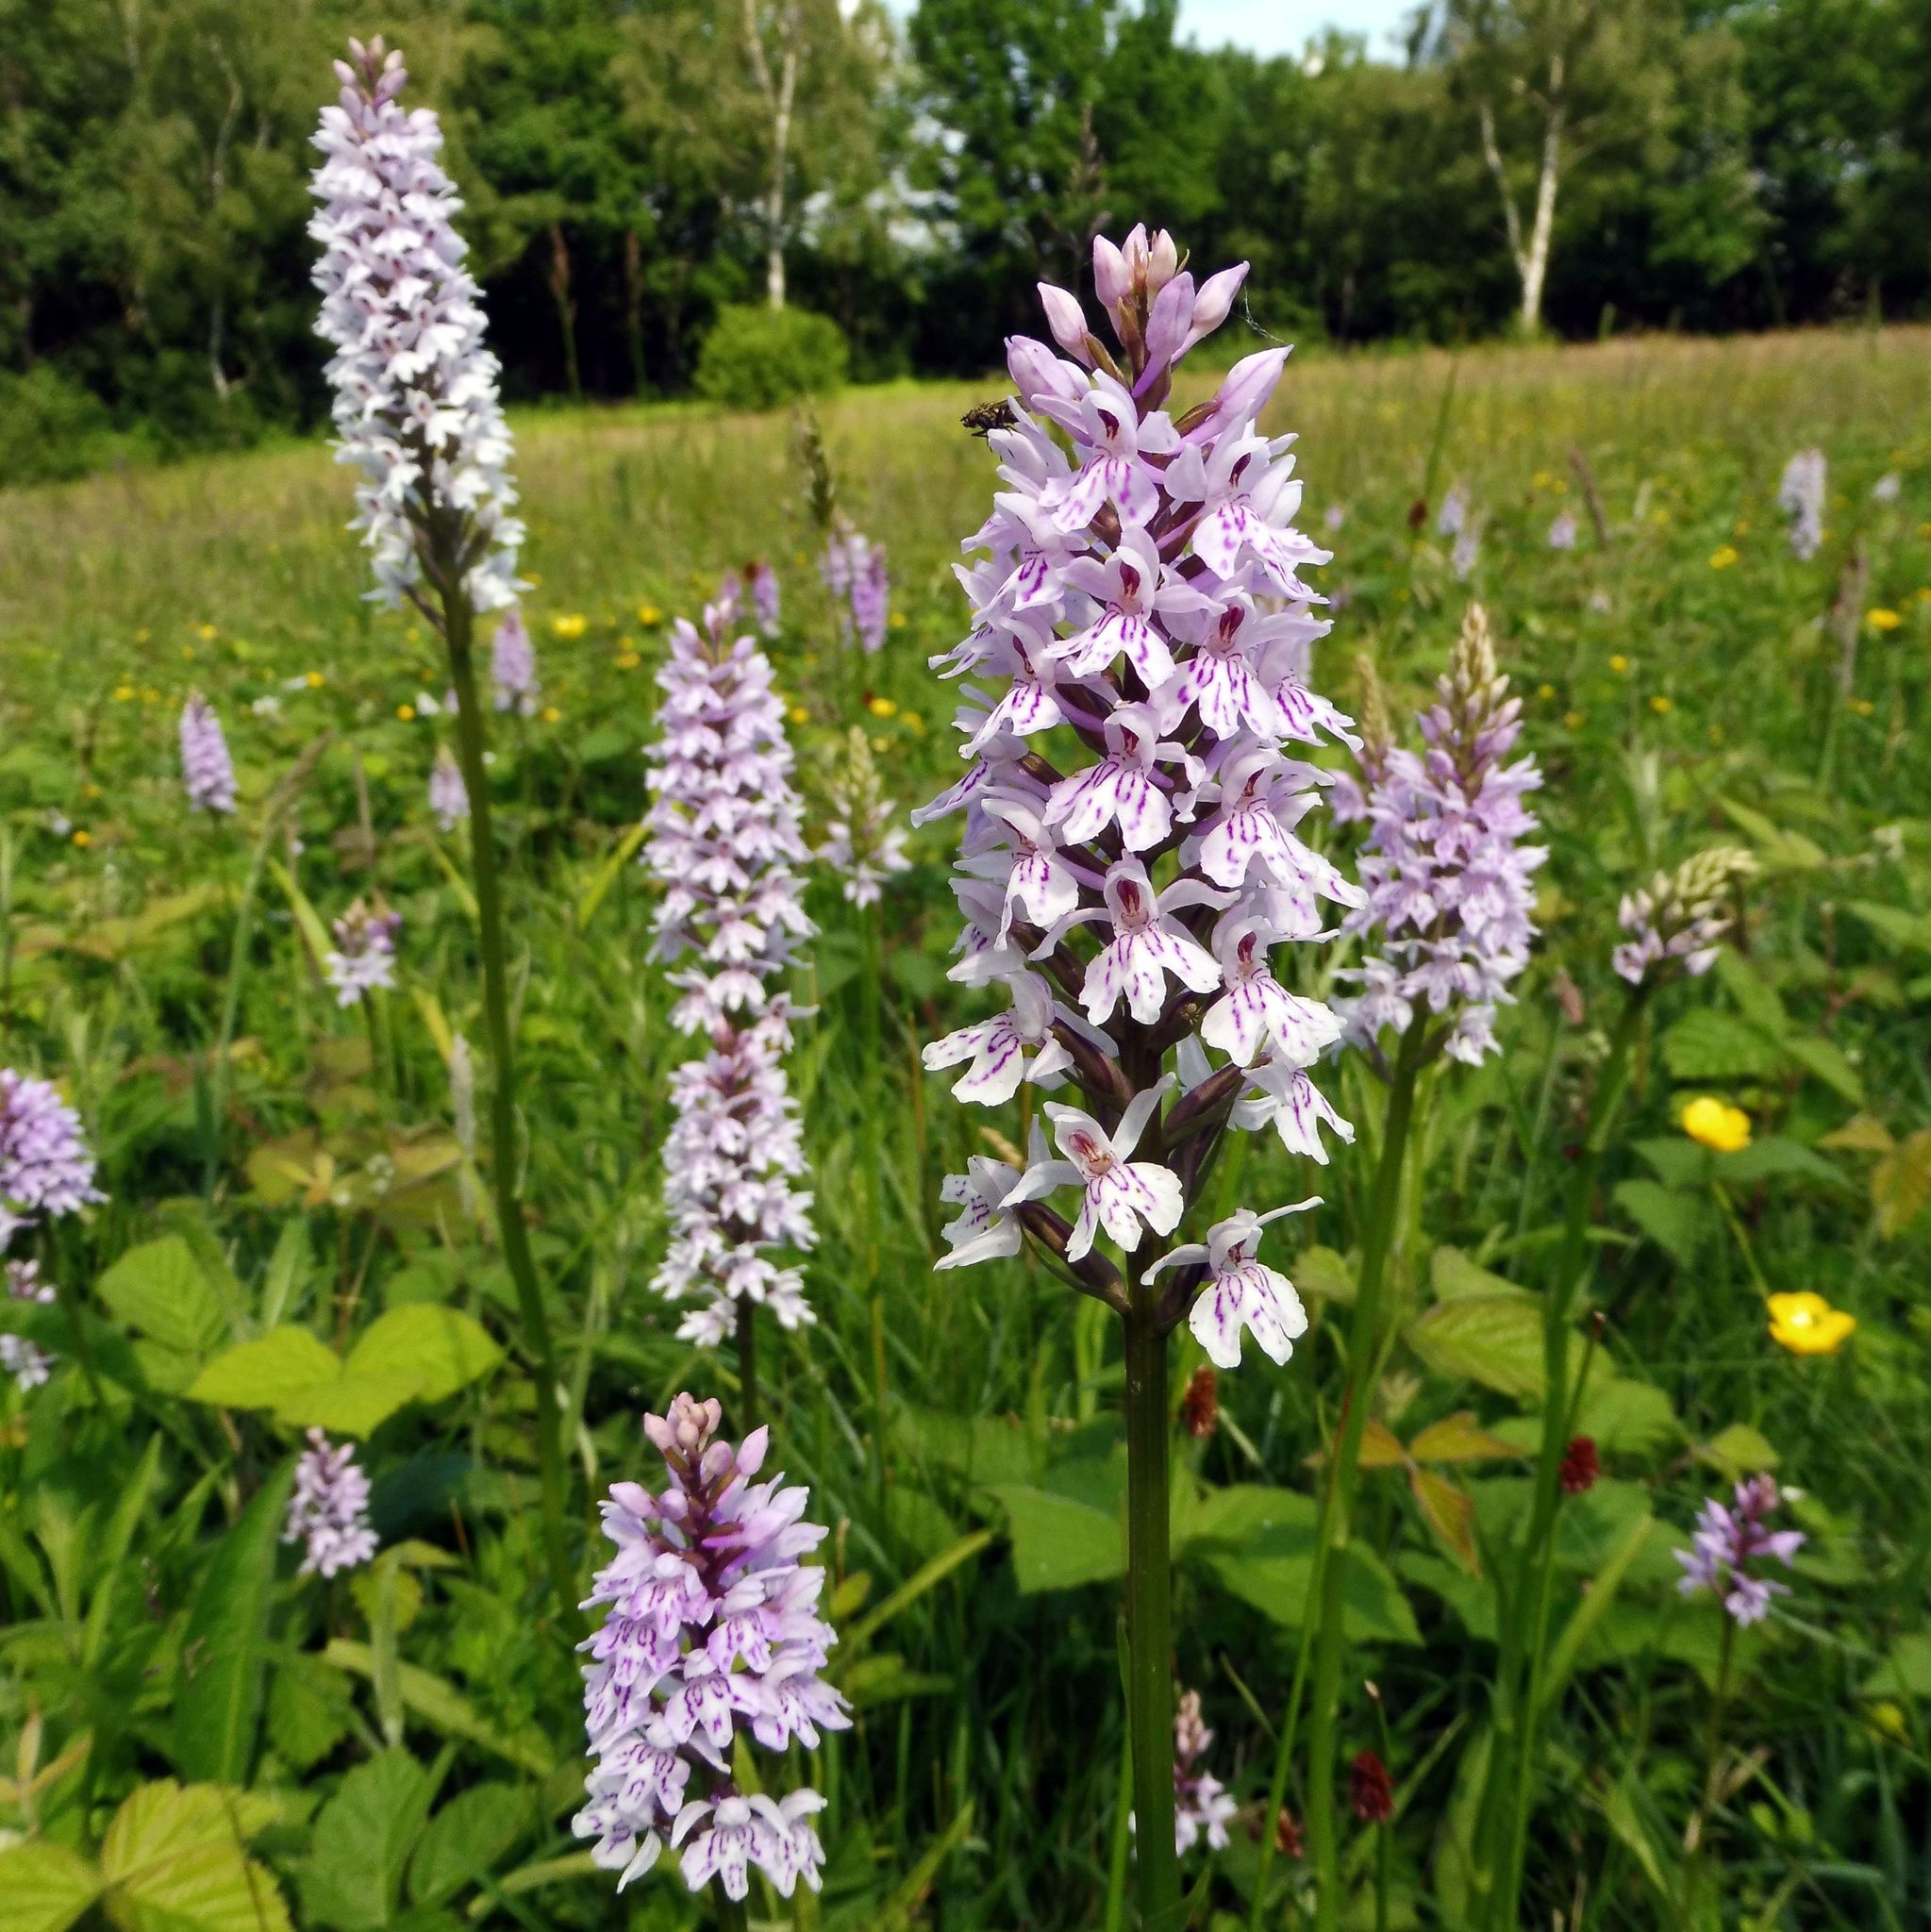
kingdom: Plantae
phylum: Tracheophyta
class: Liliopsida
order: Asparagales
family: Orchidaceae
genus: Dactylorhiza
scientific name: Dactylorhiza maculata
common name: Heath spotted-orchid
